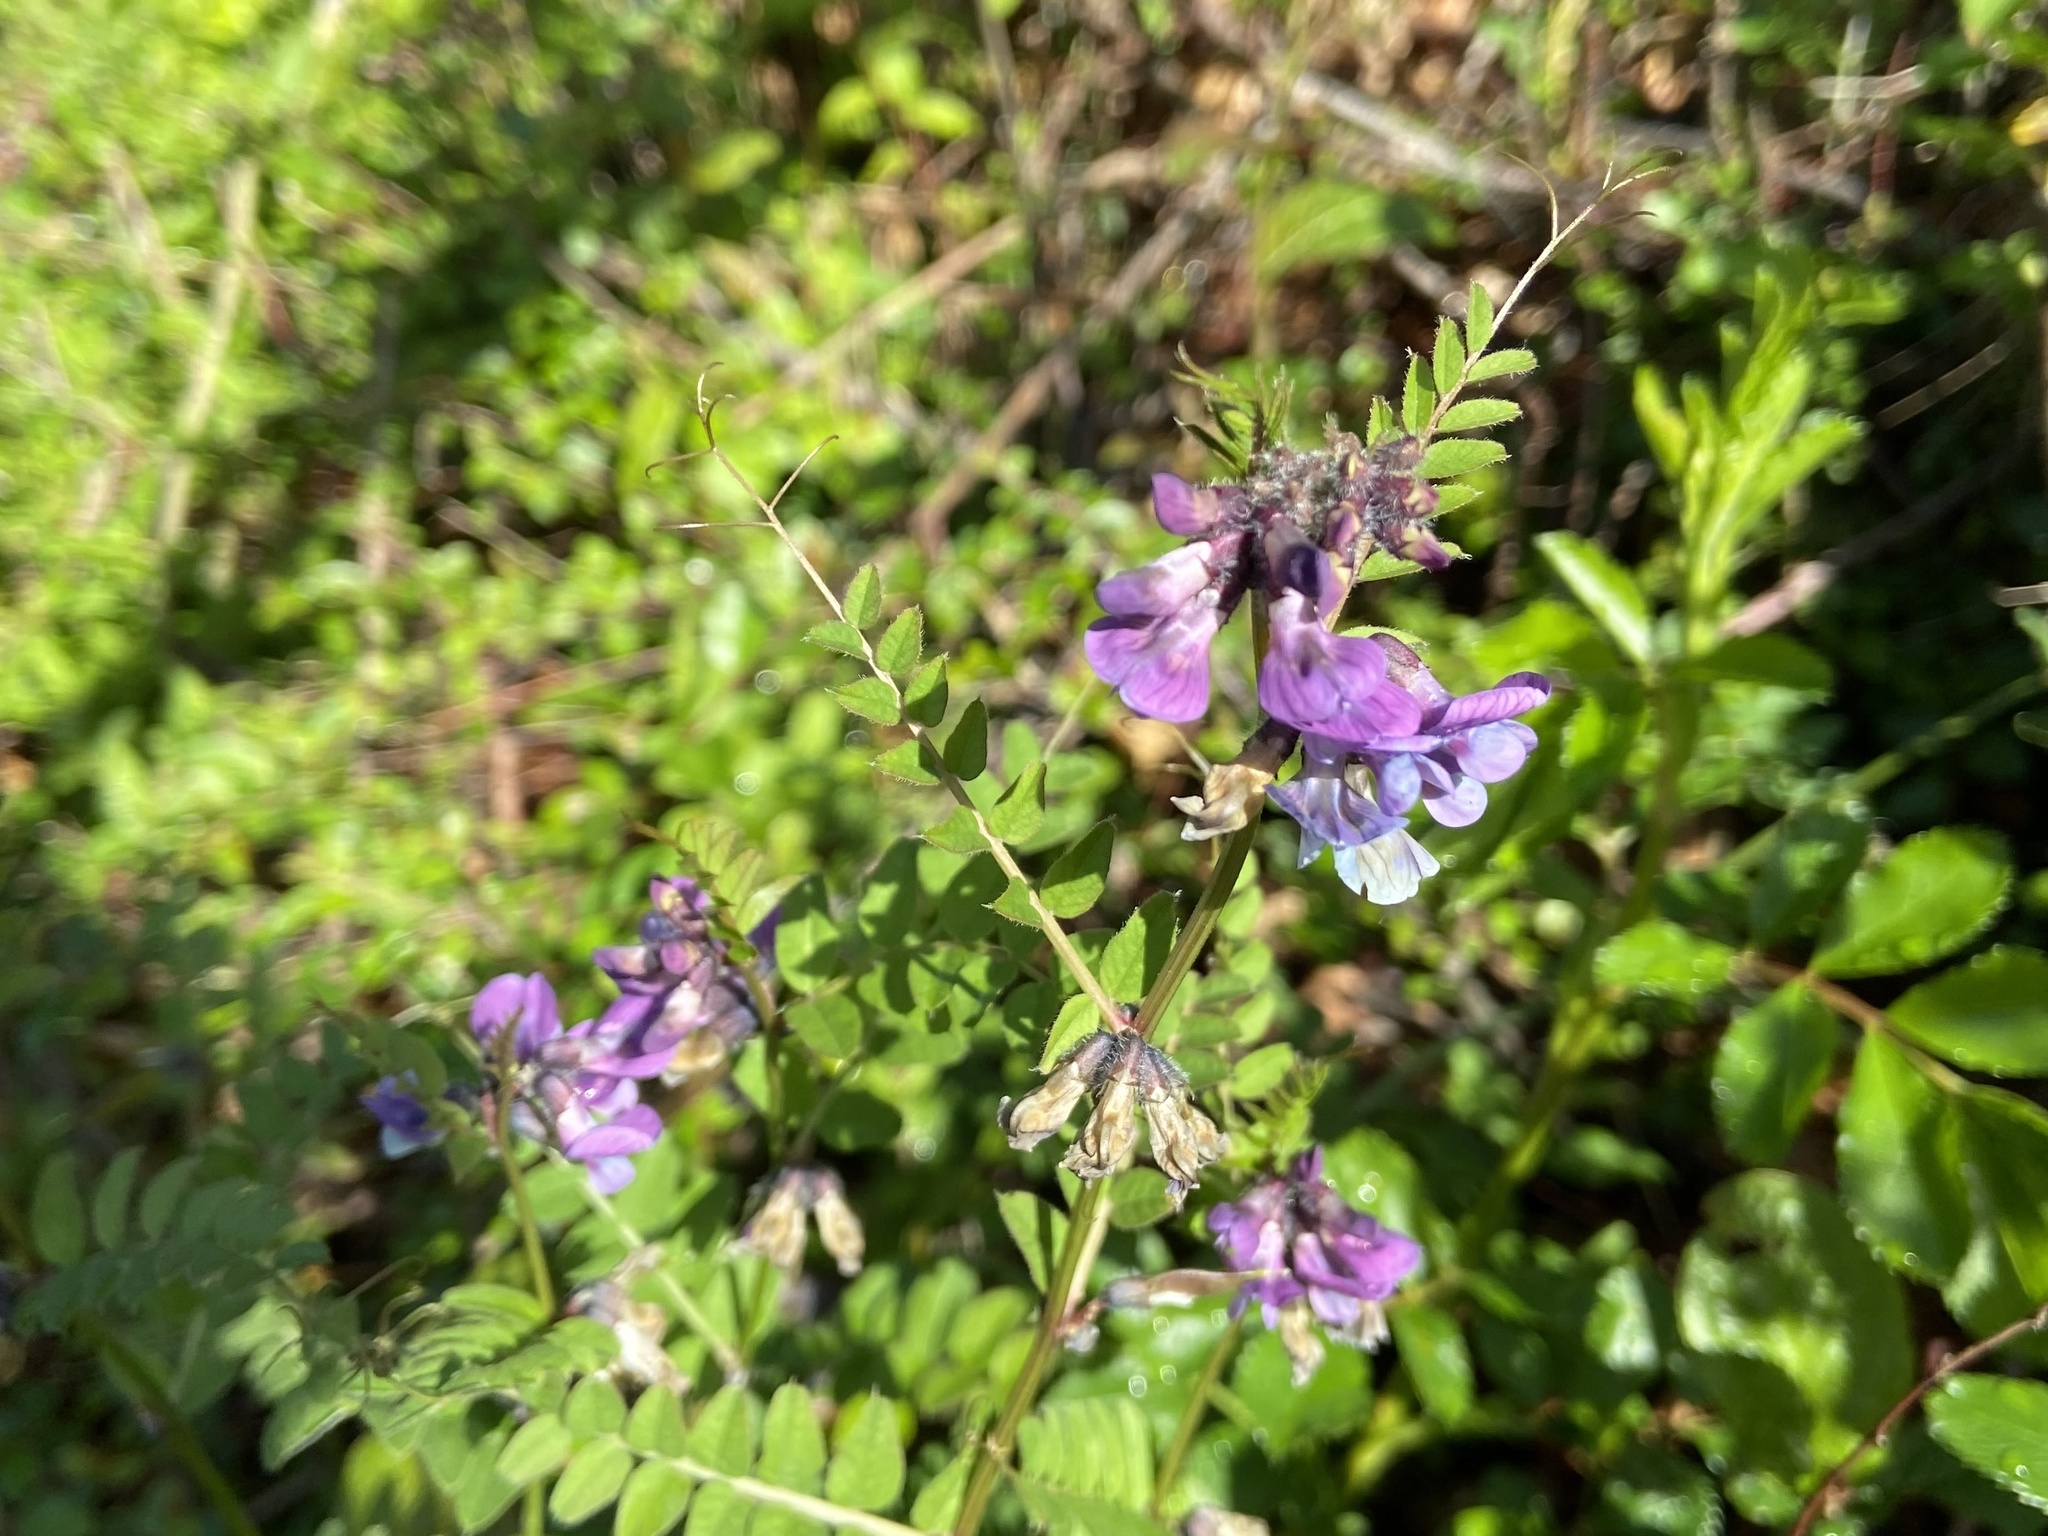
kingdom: Plantae
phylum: Tracheophyta
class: Magnoliopsida
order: Fabales
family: Fabaceae
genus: Vicia
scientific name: Vicia sepium
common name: Bush vetch
